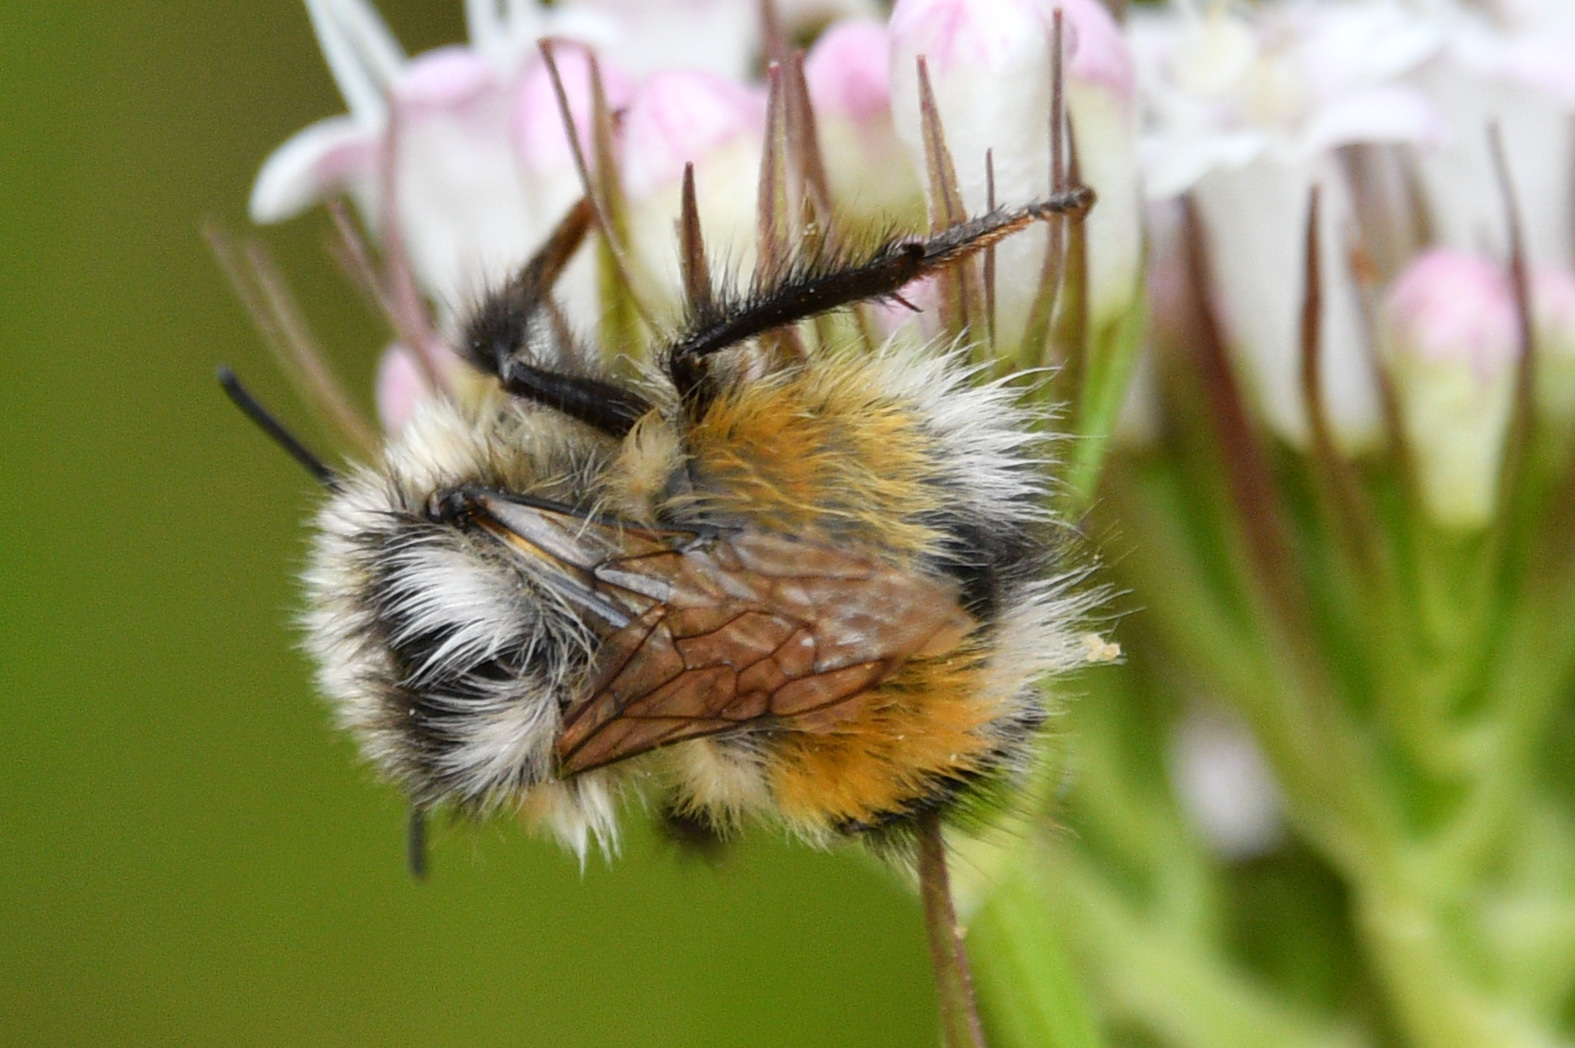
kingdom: Animalia
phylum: Arthropoda
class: Insecta
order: Hymenoptera
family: Apidae
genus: Bombus
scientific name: Bombus sylvicola
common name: Forest bumble bee
